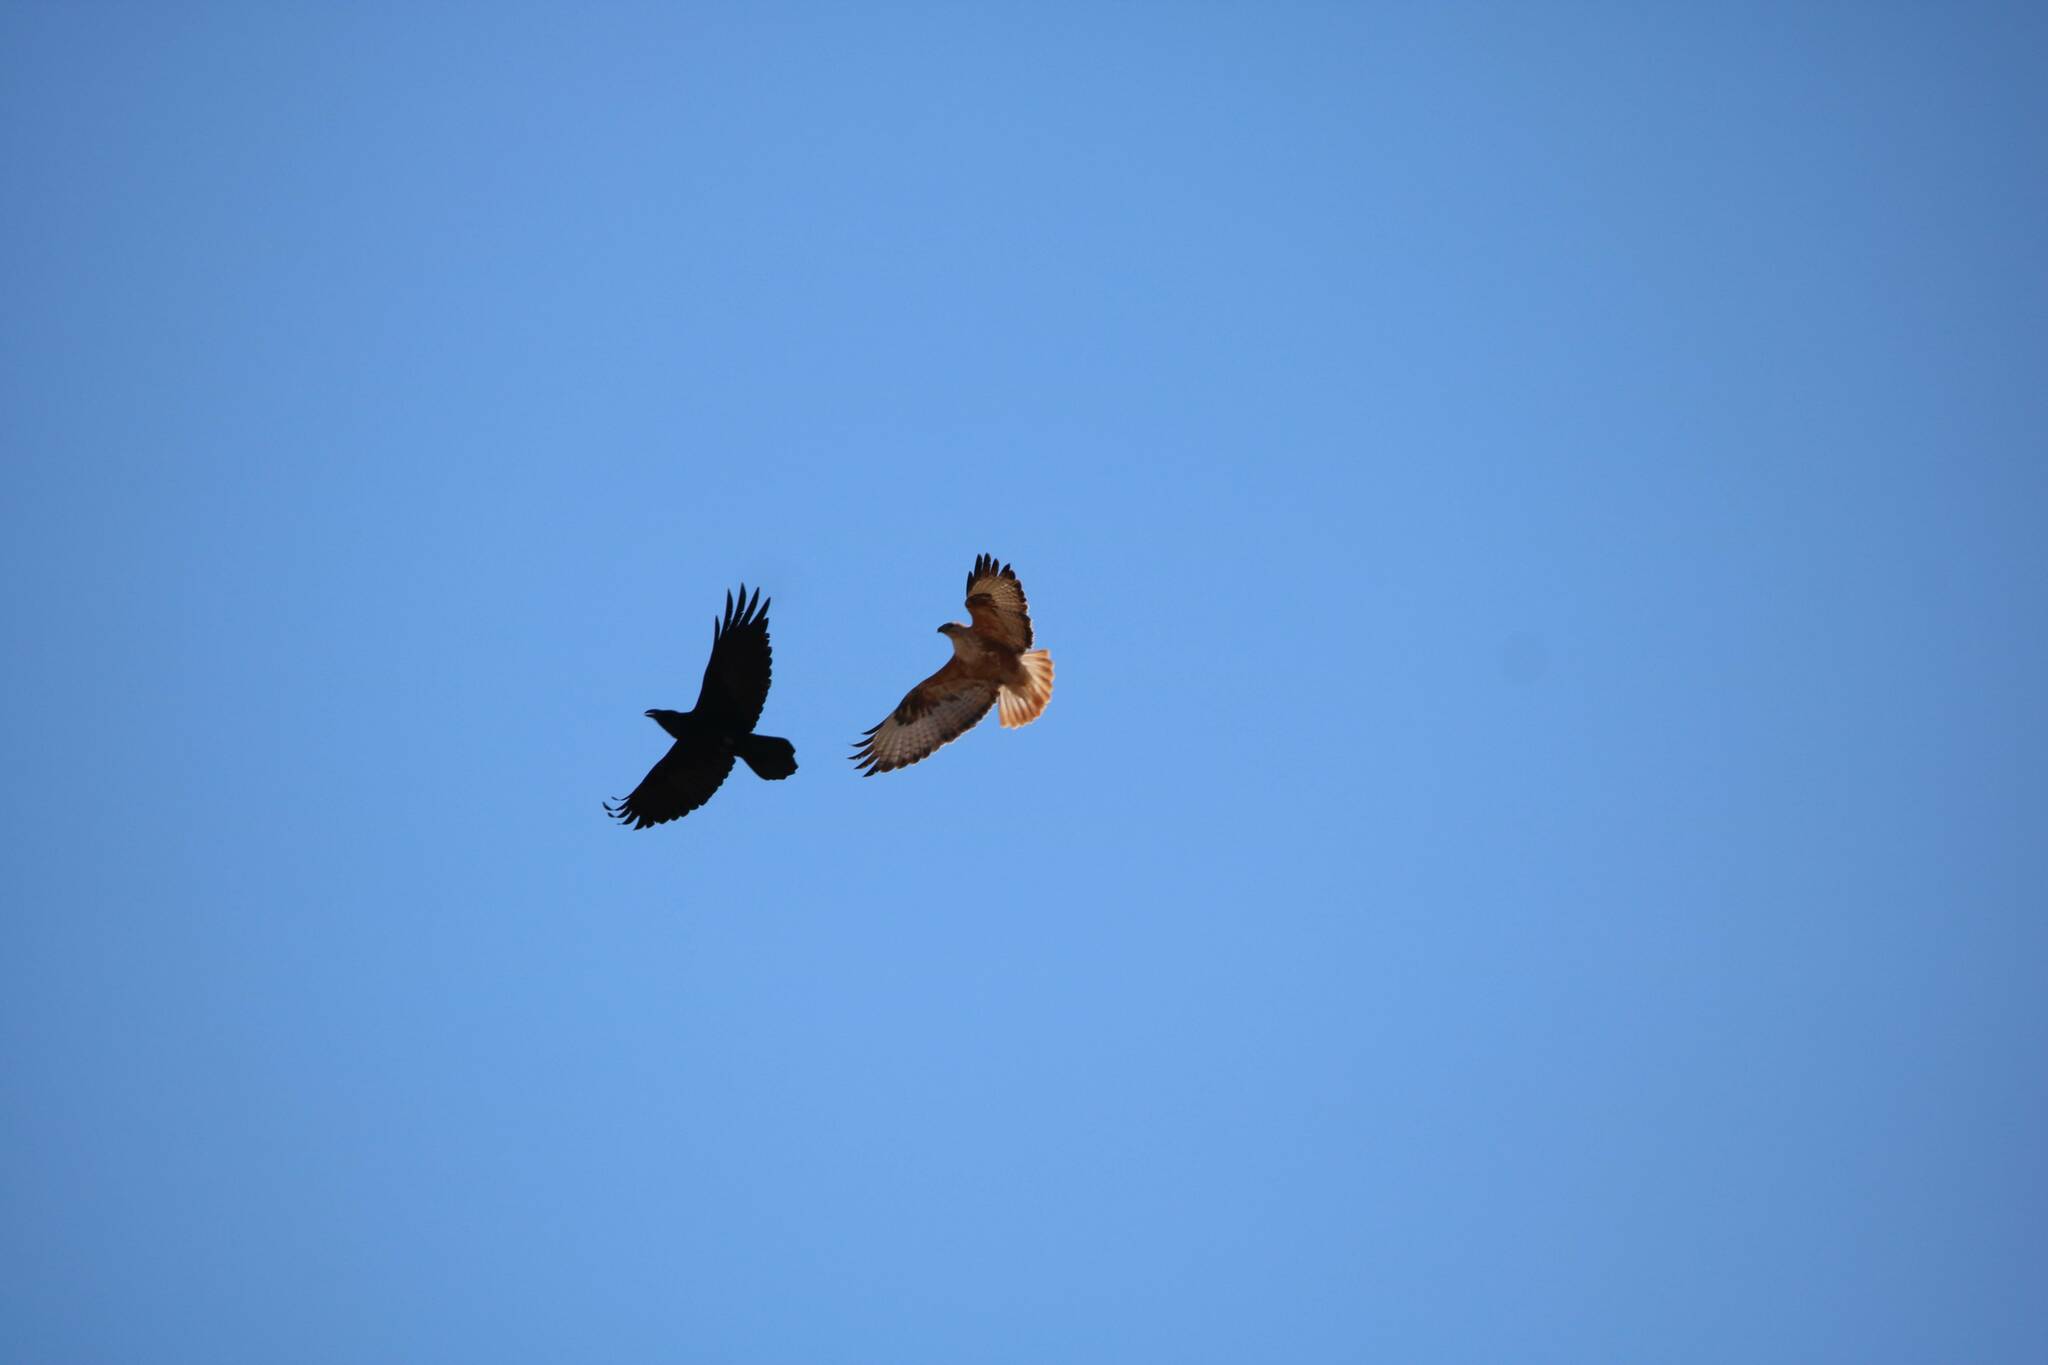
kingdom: Animalia
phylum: Chordata
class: Aves
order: Accipitriformes
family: Accipitridae
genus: Buteo
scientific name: Buteo rufinus
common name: Long-legged buzzard
